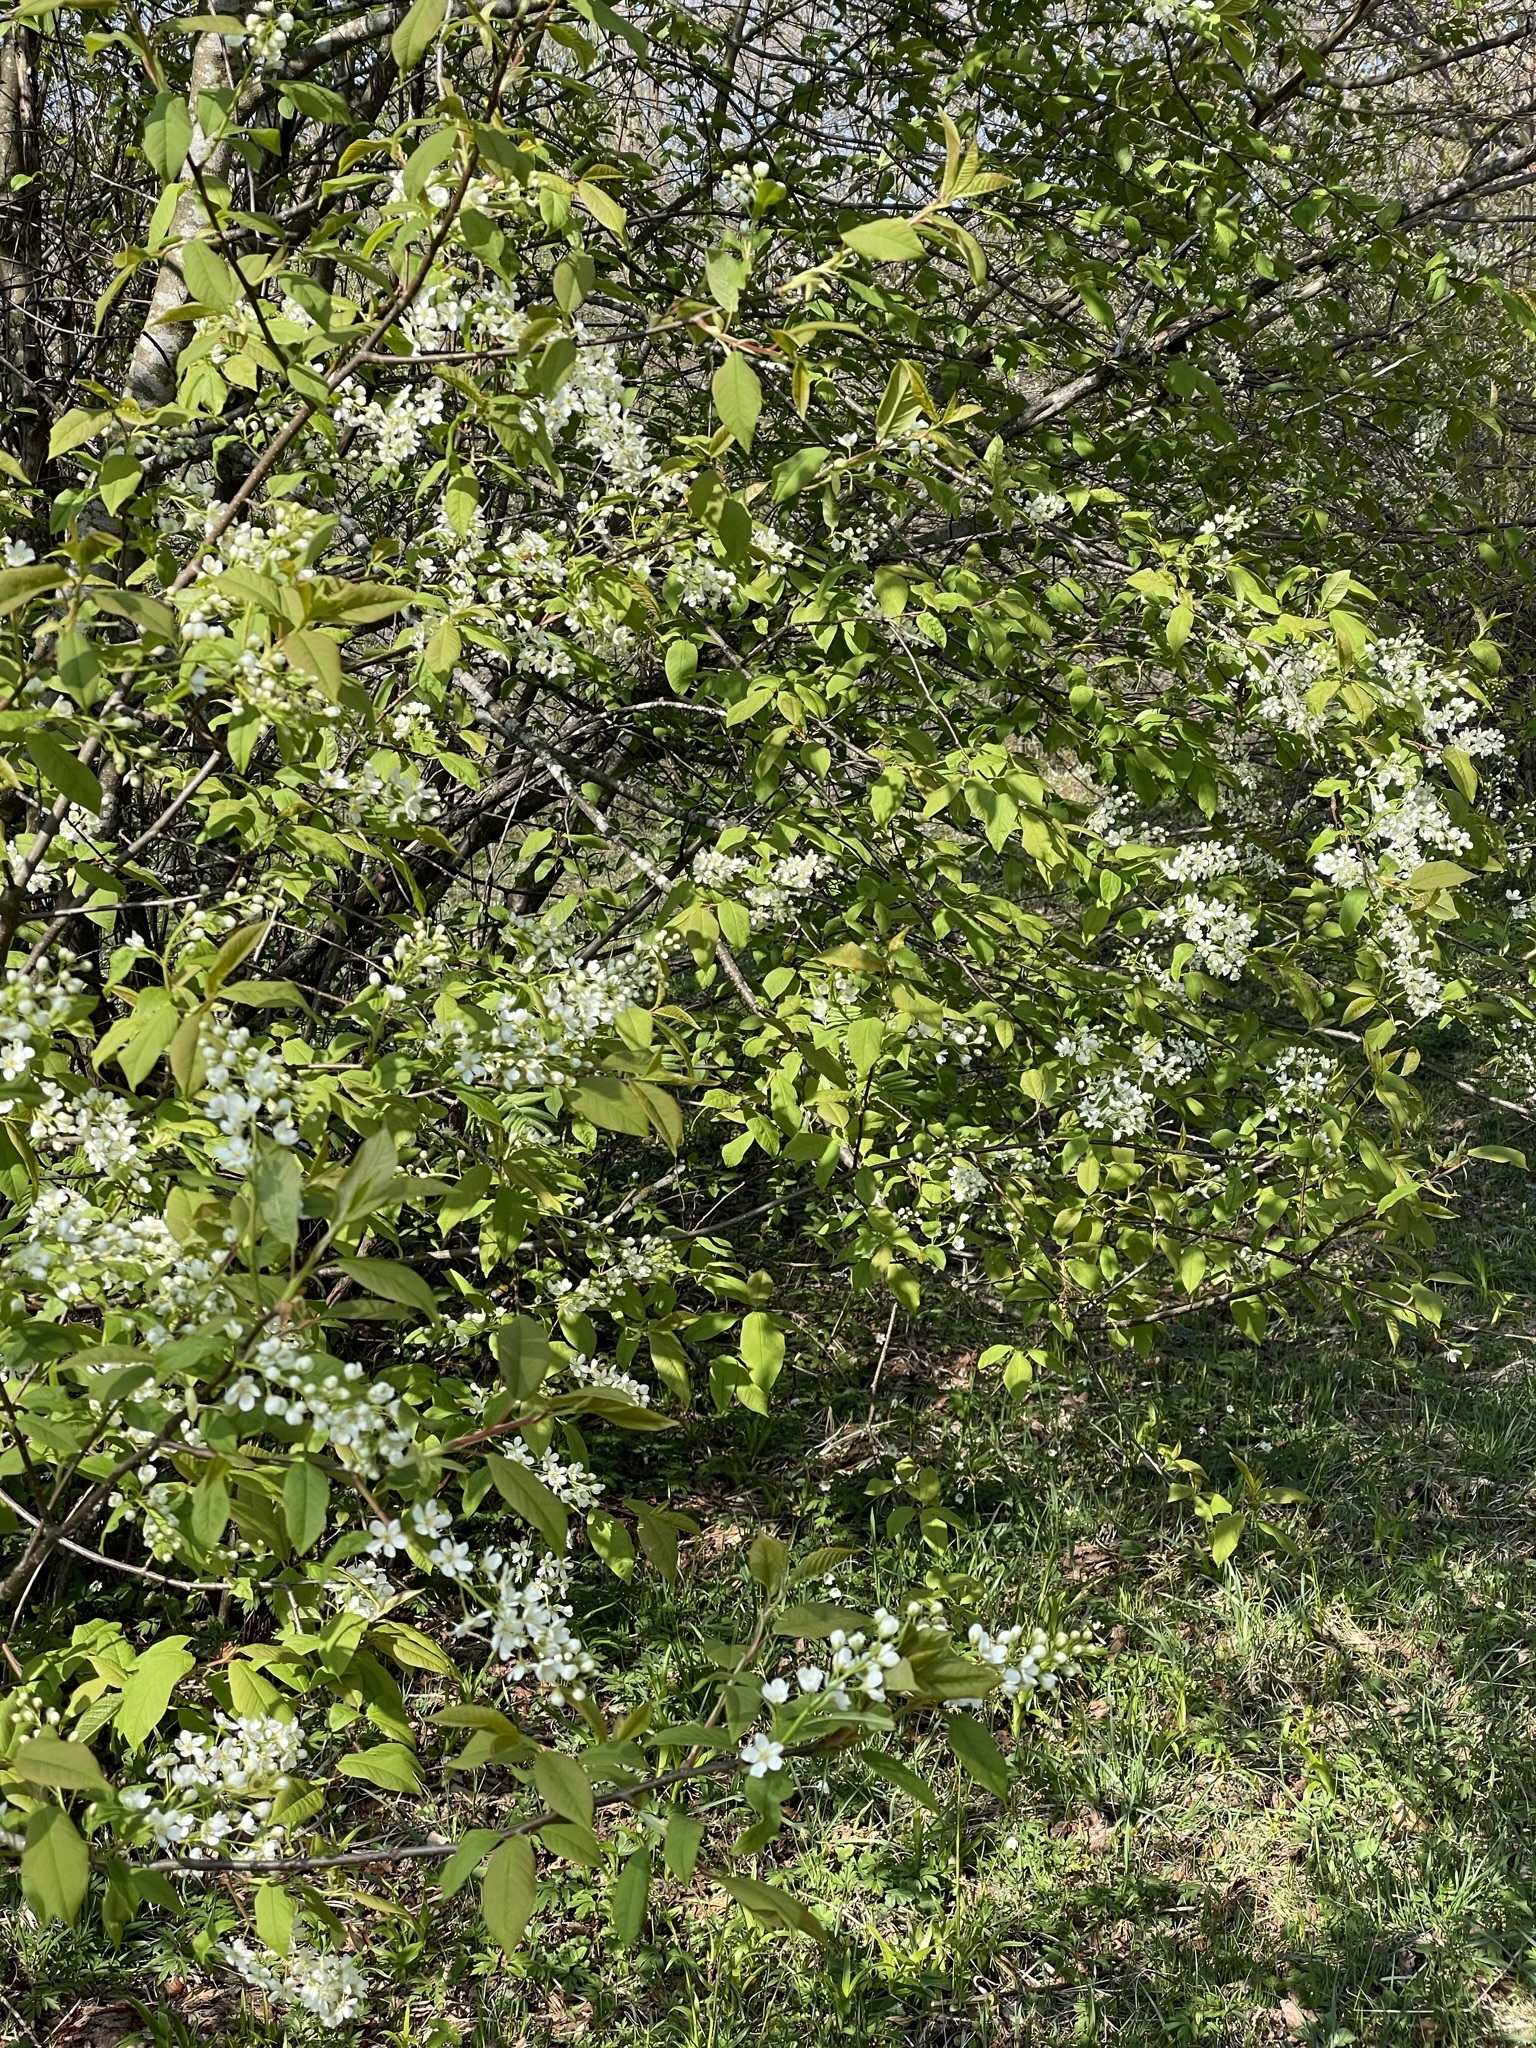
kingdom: Plantae
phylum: Tracheophyta
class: Magnoliopsida
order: Rosales
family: Rosaceae
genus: Prunus
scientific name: Prunus padus
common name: Bird cherry
